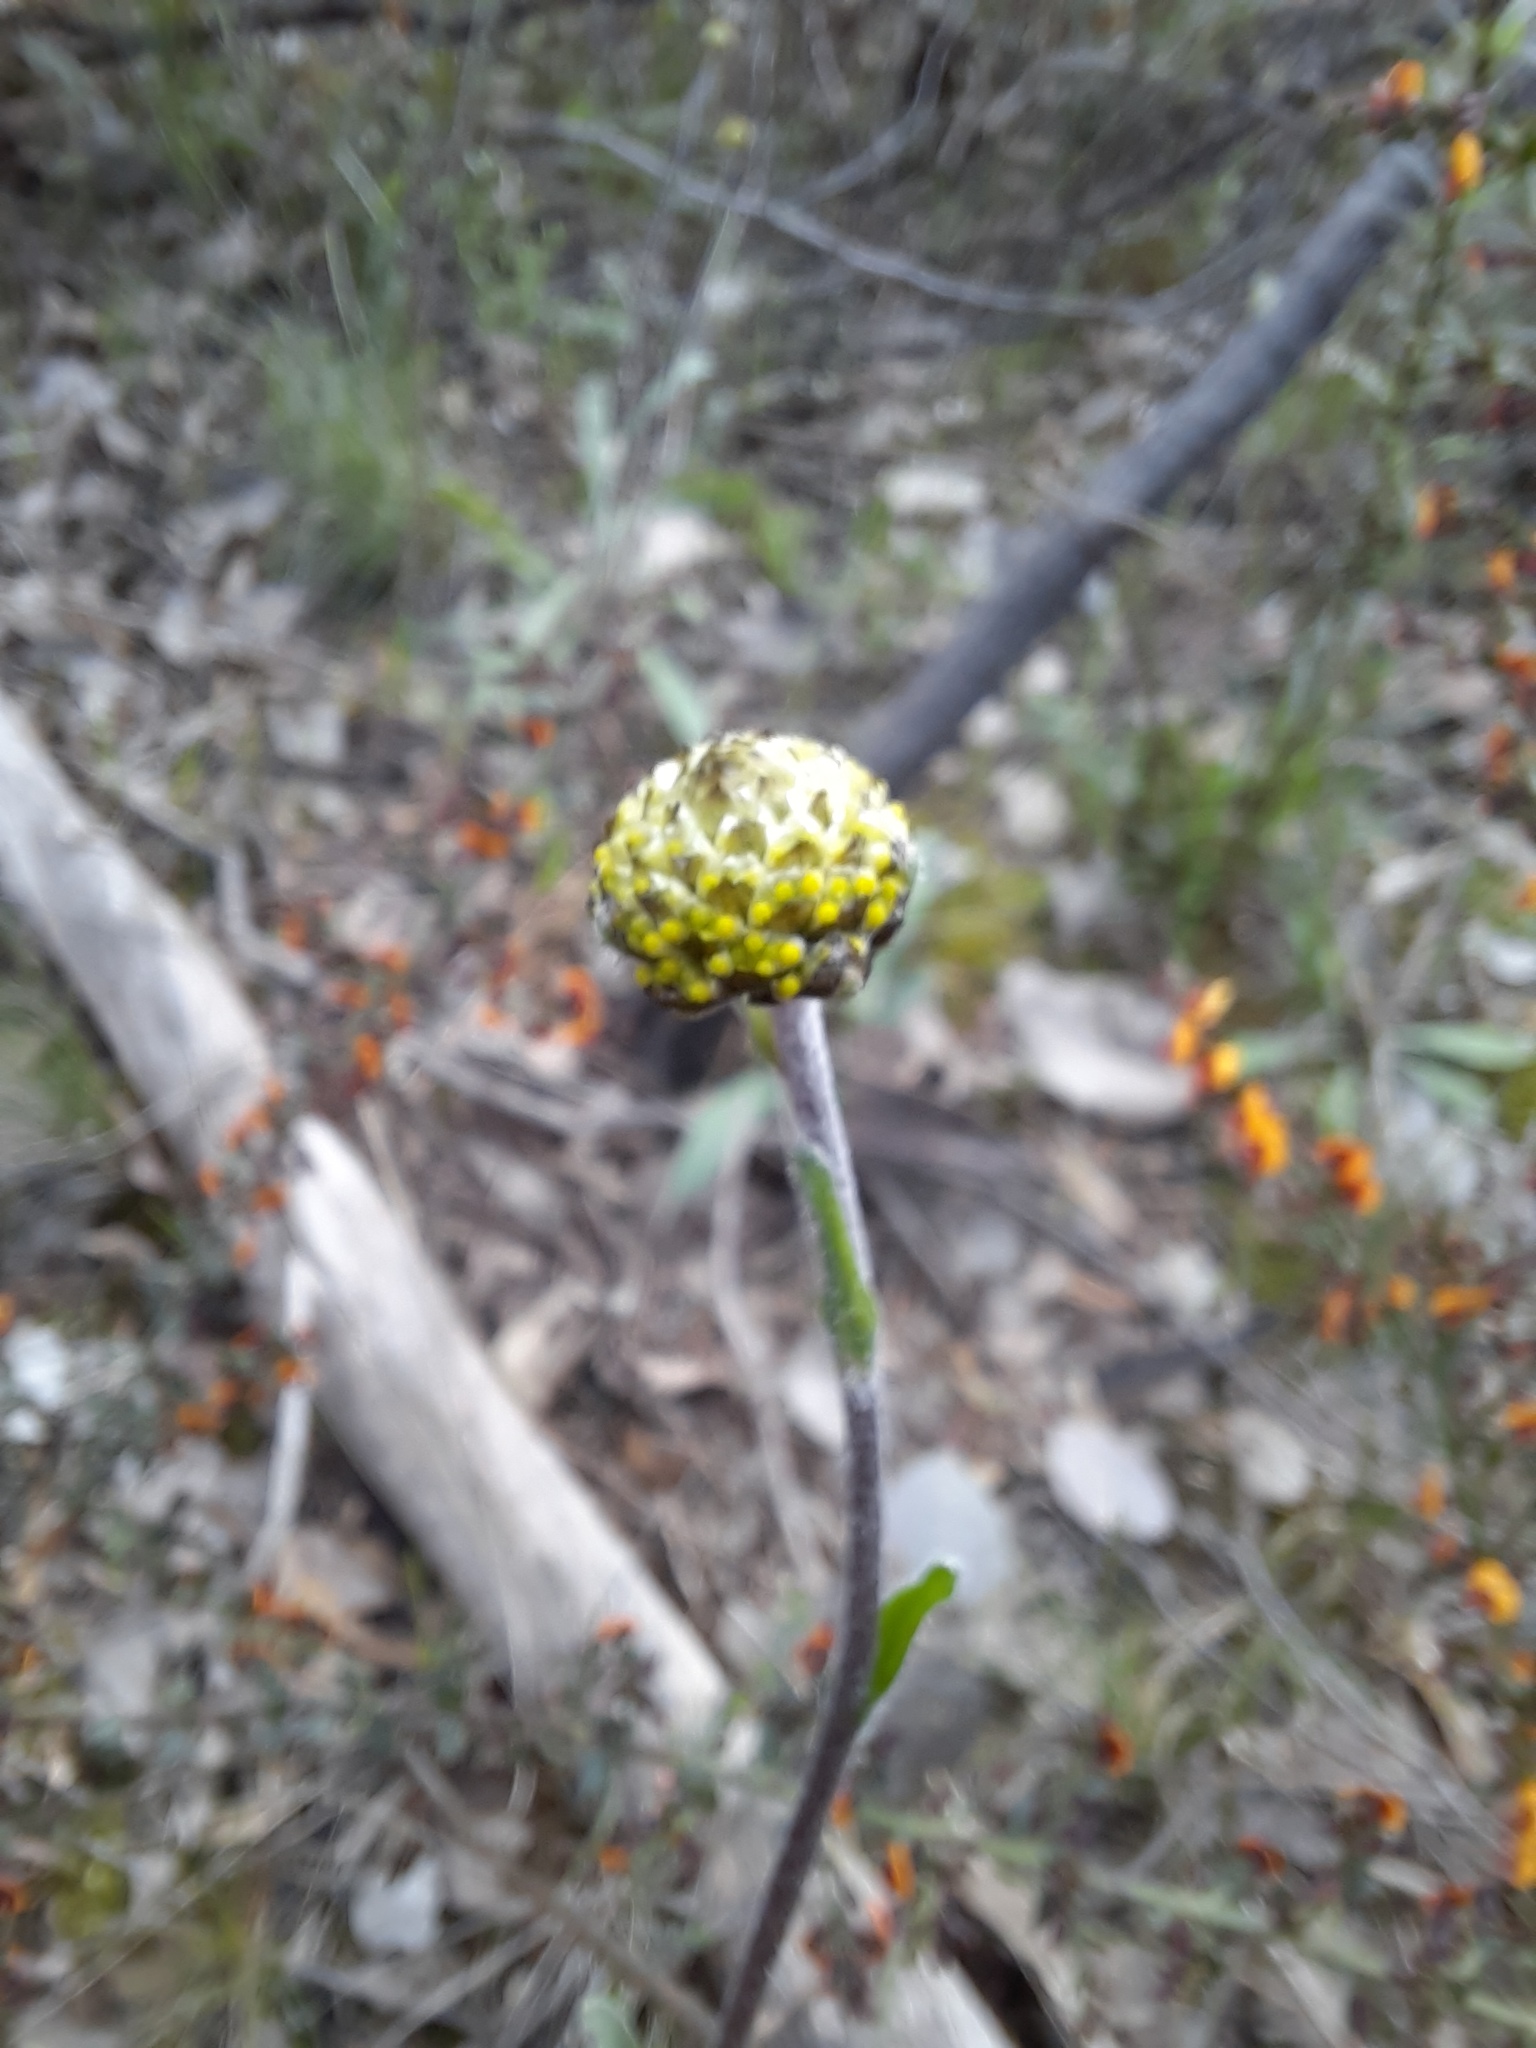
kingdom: Plantae
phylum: Tracheophyta
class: Magnoliopsida
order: Asterales
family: Asteraceae
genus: Craspedia
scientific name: Craspedia variabilis
